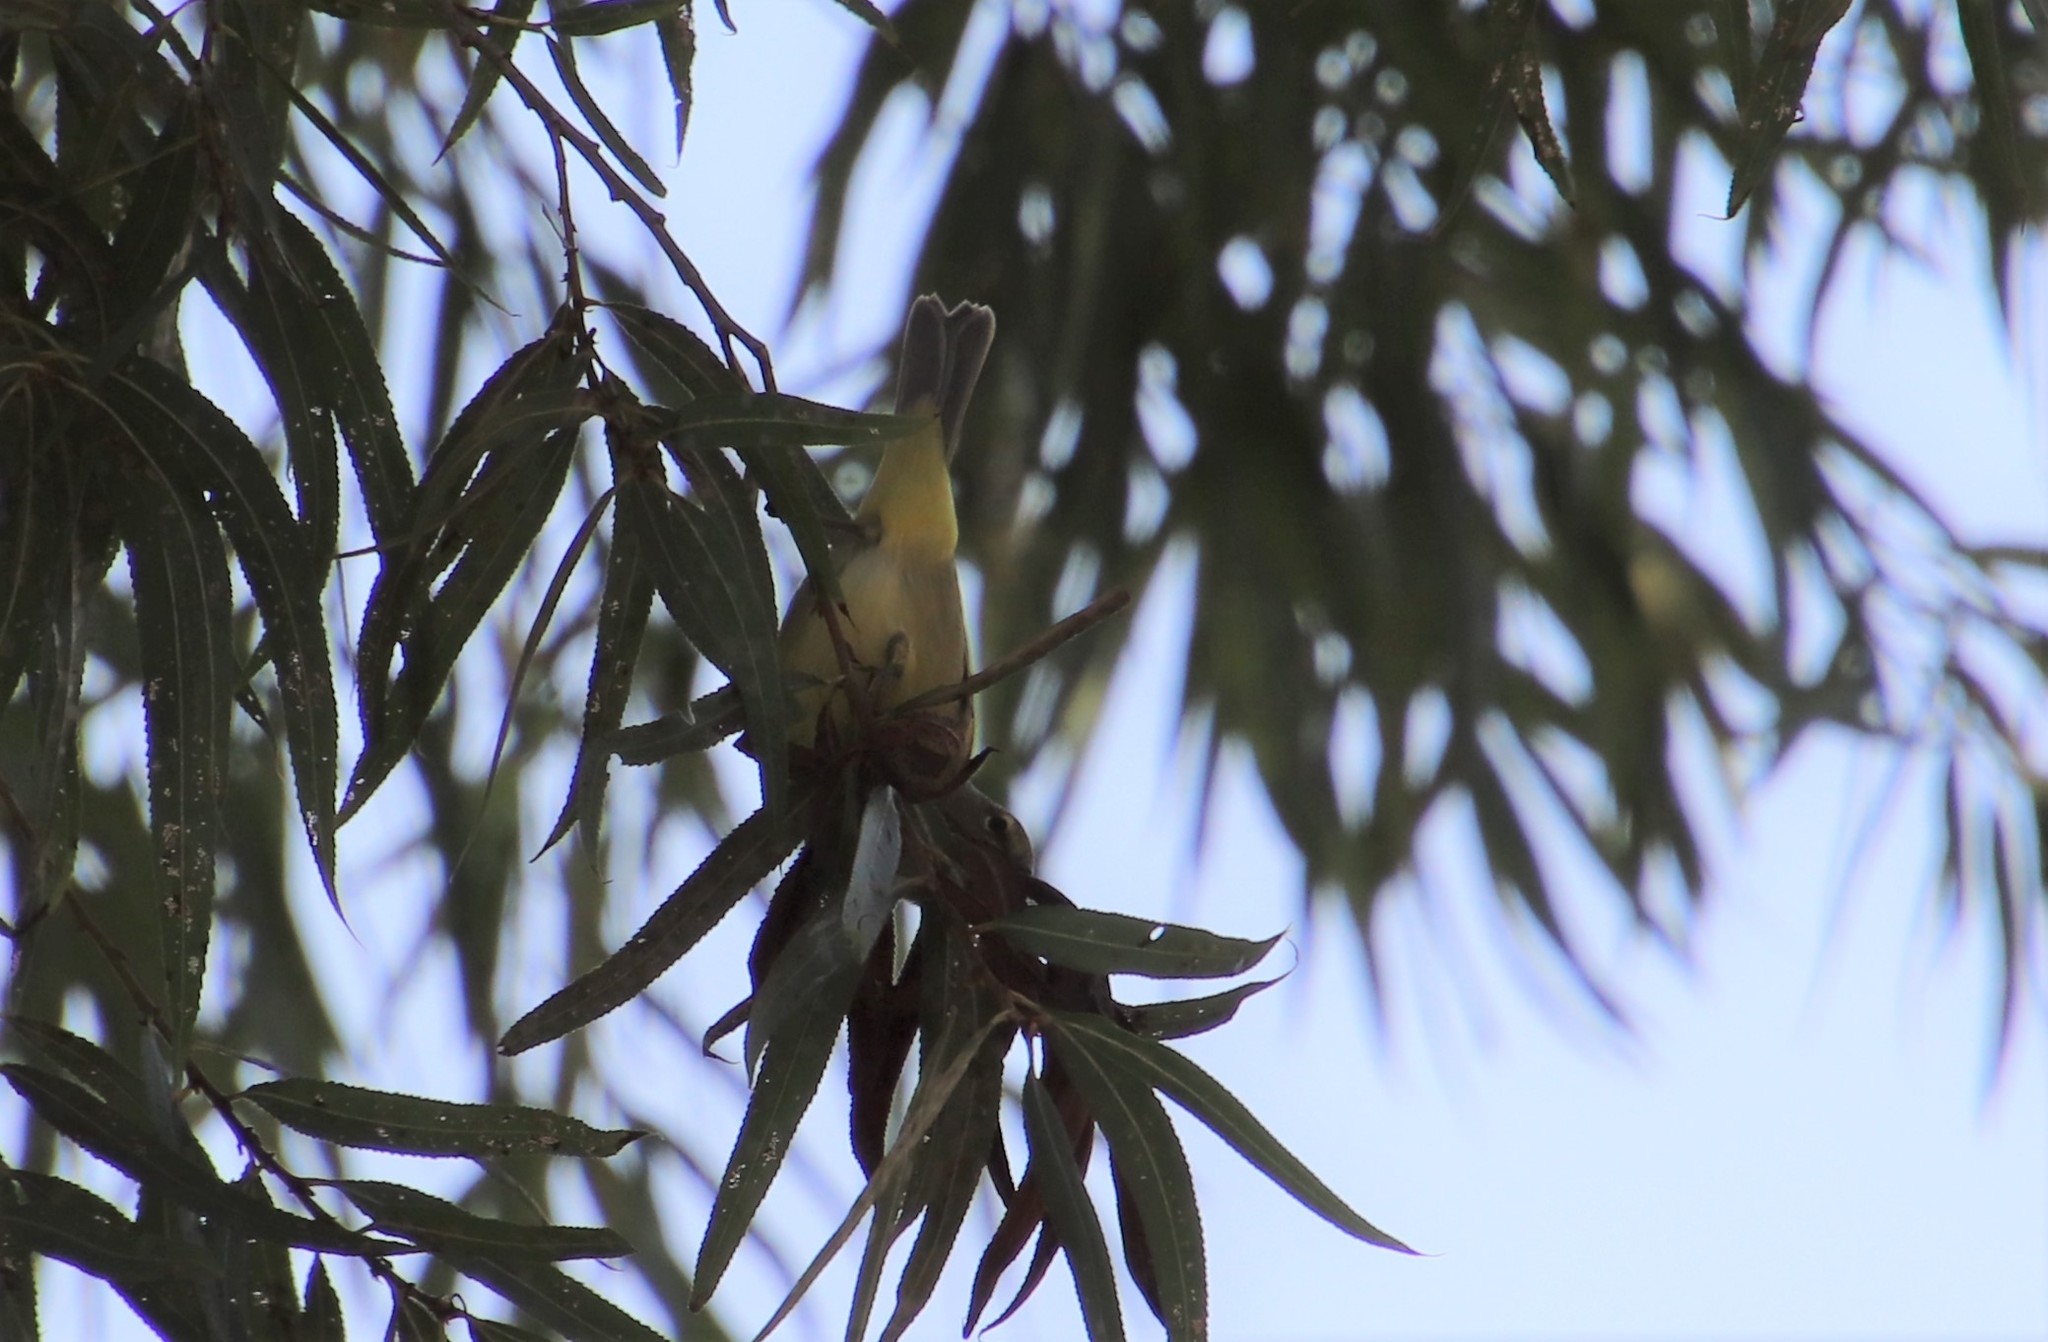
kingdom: Animalia
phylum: Chordata
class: Aves
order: Passeriformes
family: Parulidae
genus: Leiothlypis
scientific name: Leiothlypis celata
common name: Orange-crowned warbler
